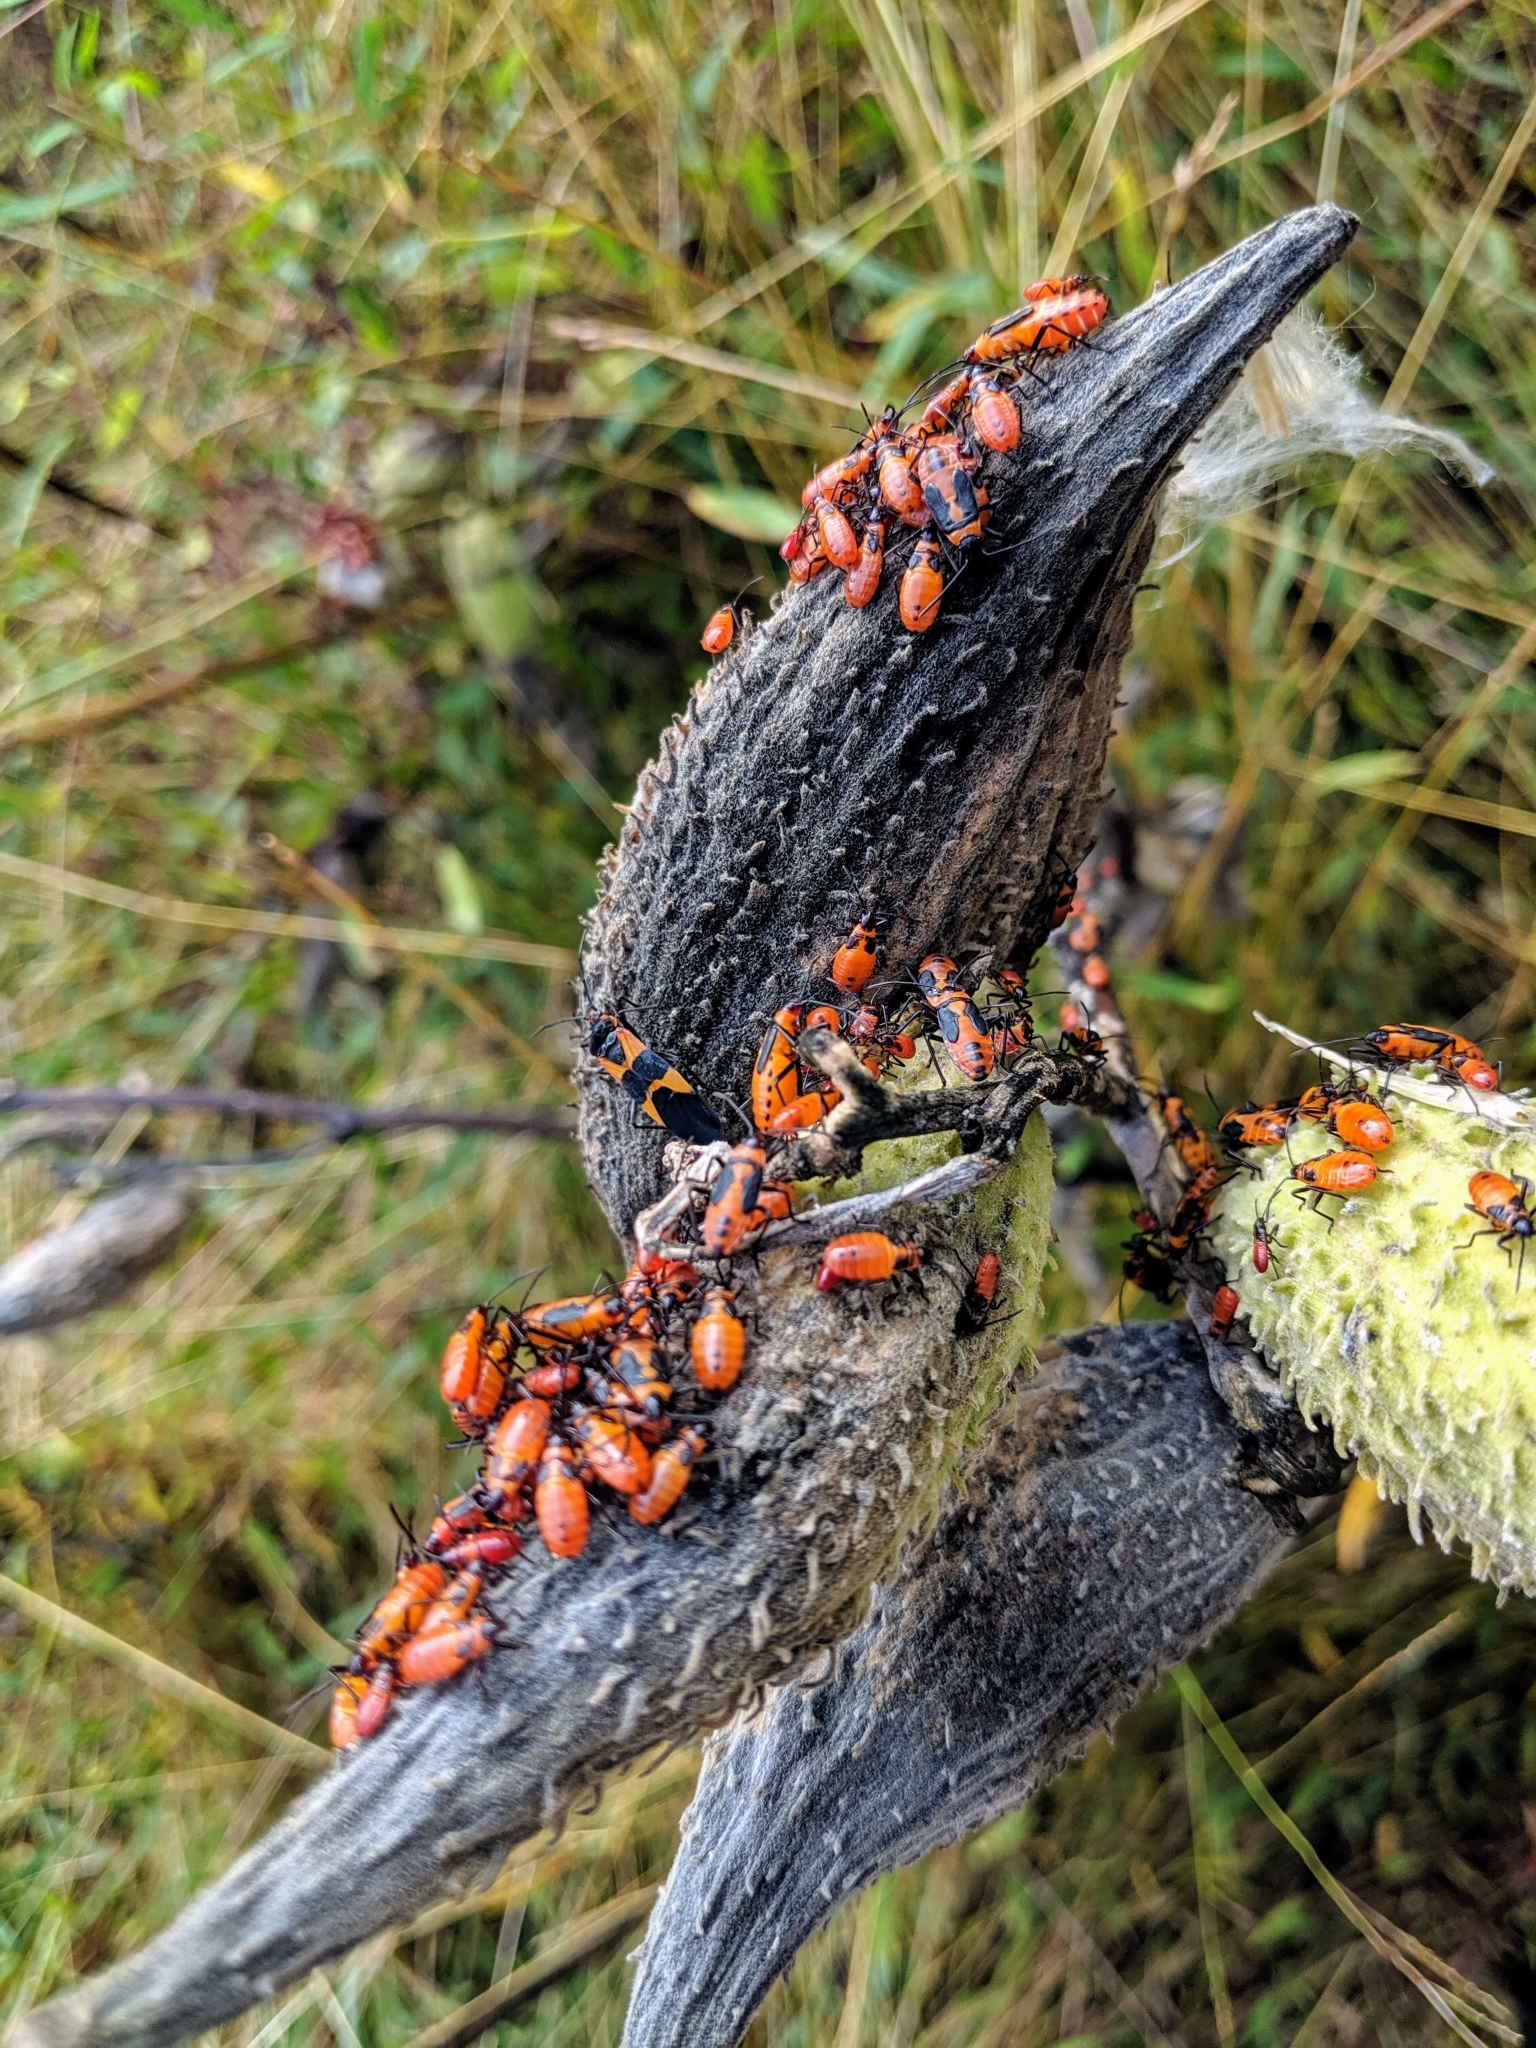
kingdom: Animalia
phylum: Arthropoda
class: Insecta
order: Hemiptera
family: Lygaeidae
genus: Oncopeltus
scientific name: Oncopeltus fasciatus
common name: Large milkweed bug
